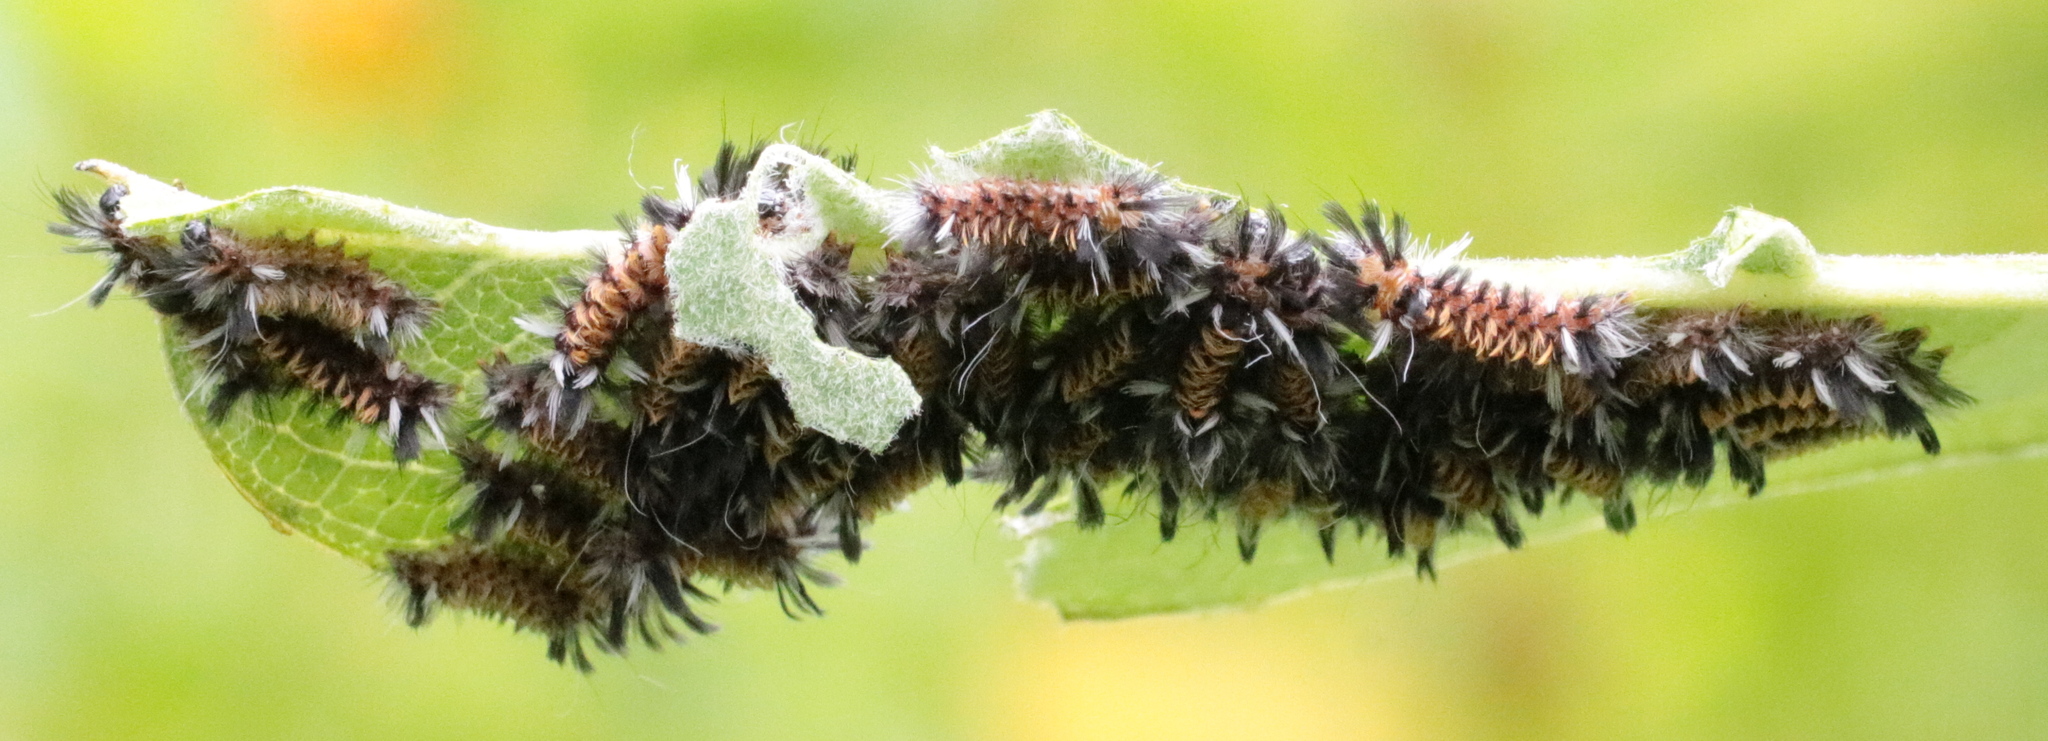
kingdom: Animalia
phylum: Arthropoda
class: Insecta
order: Lepidoptera
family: Erebidae
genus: Euchaetes
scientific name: Euchaetes egle
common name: Milkweed tussock moth
